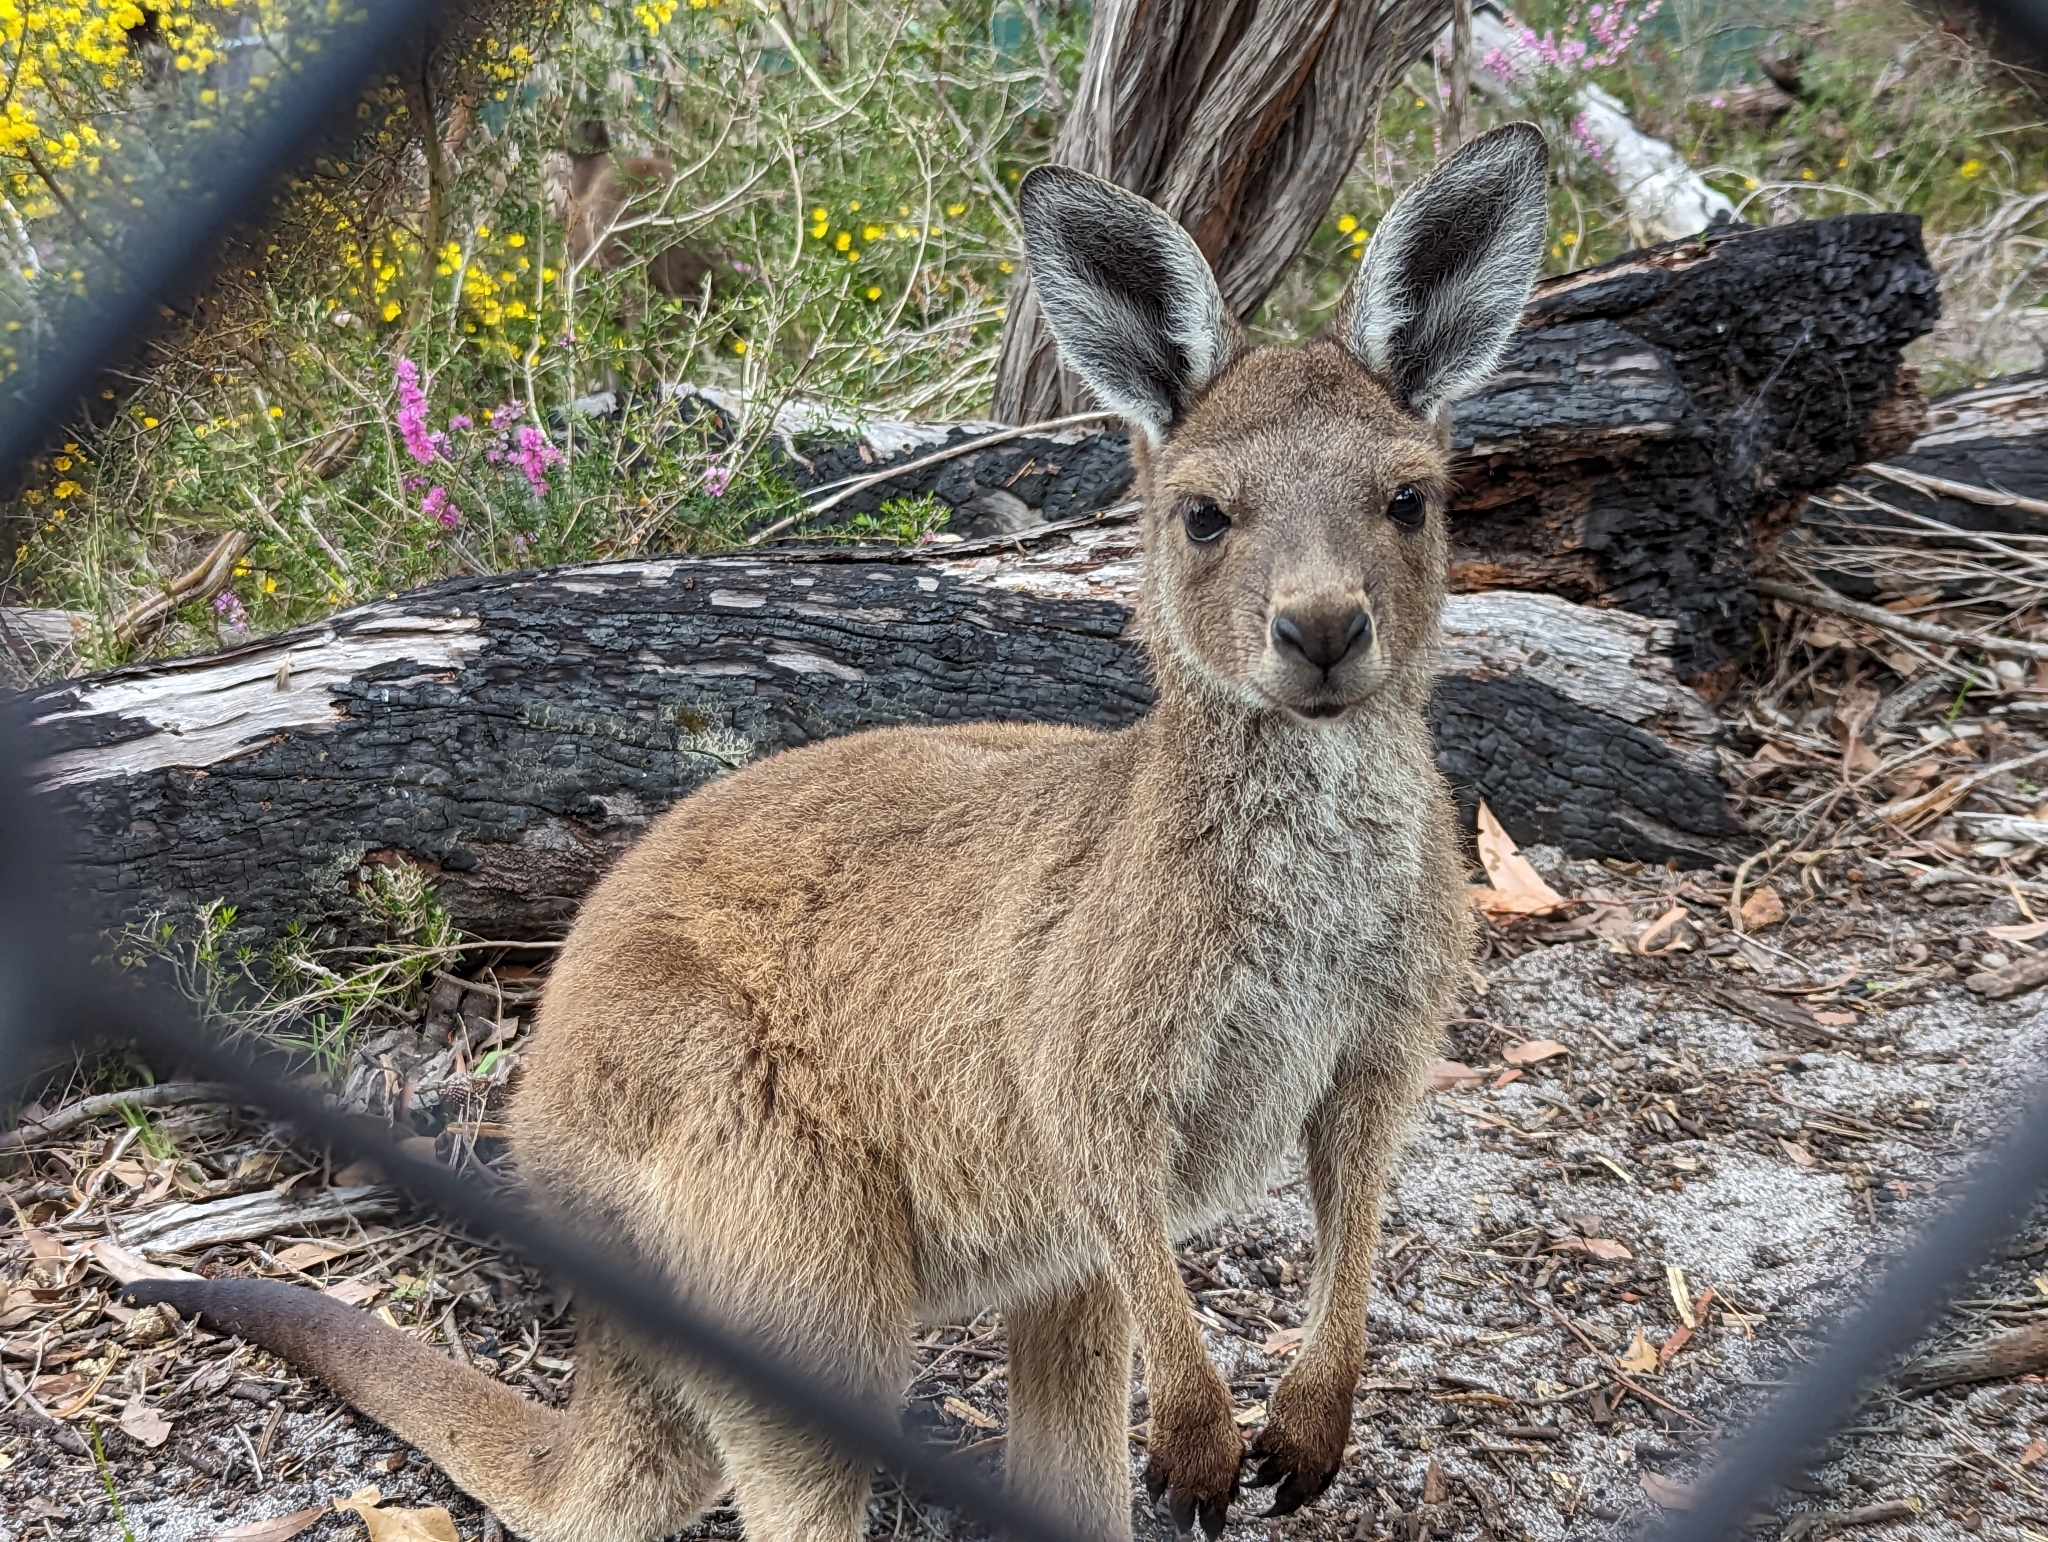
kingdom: Animalia
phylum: Chordata
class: Mammalia
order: Diprotodontia
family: Macropodidae
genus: Macropus
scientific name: Macropus fuliginosus
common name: Western grey kangaroo
